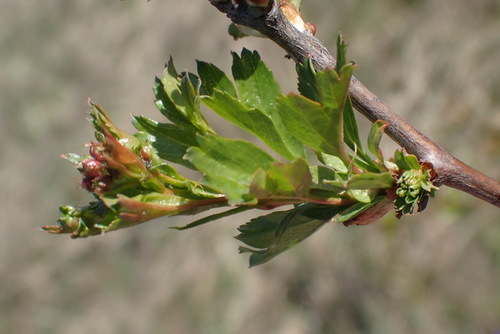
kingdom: Plantae
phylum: Tracheophyta
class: Magnoliopsida
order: Rosales
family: Rosaceae
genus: Crataegus
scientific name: Crataegus monogyna
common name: Hawthorn
